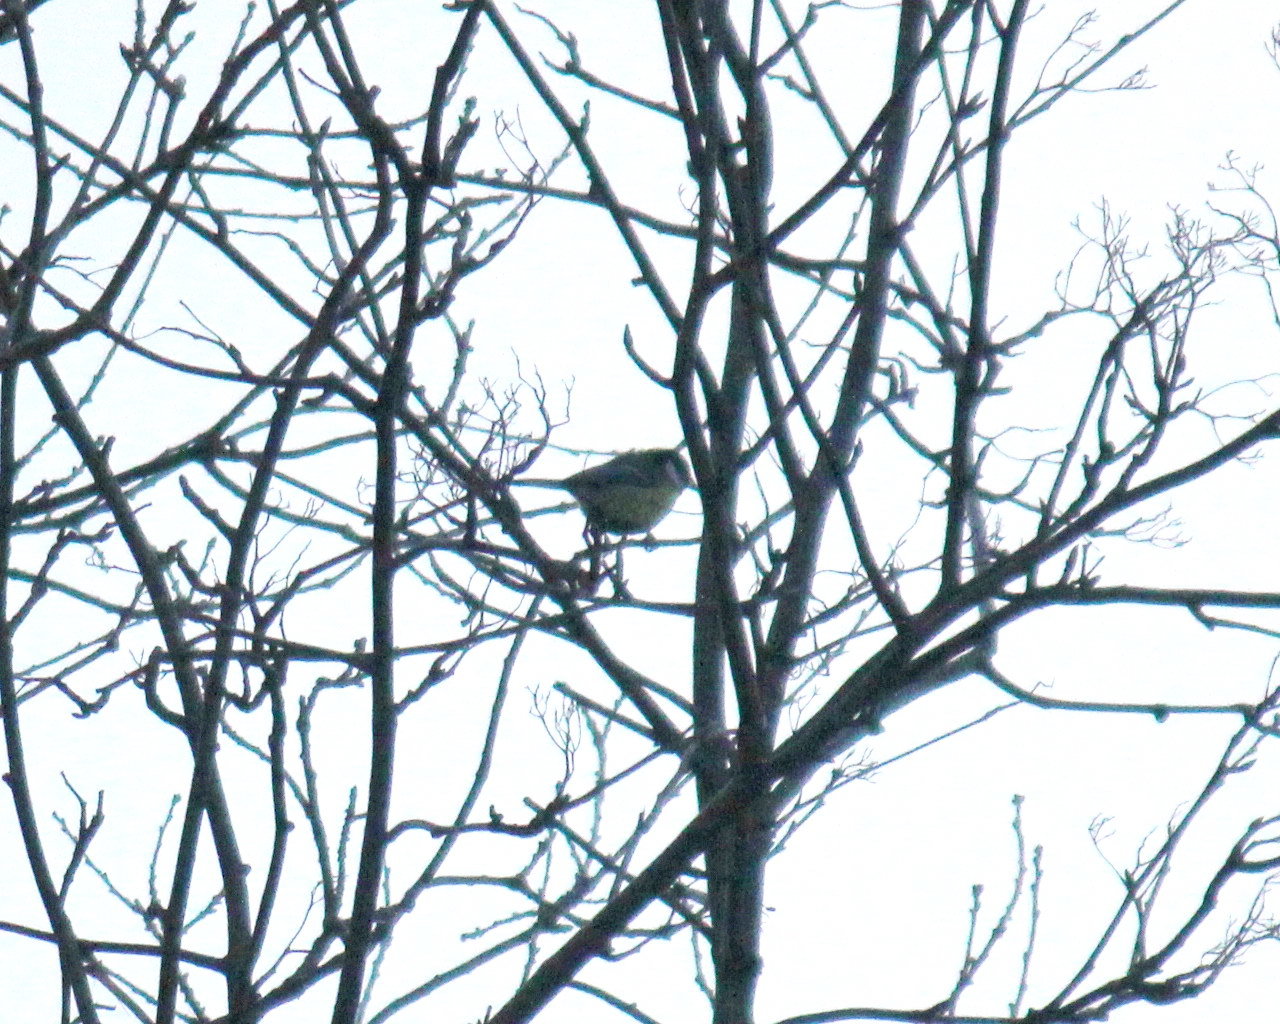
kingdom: Animalia
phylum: Chordata
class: Aves
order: Passeriformes
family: Paridae
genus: Parus
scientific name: Parus major
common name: Great tit
